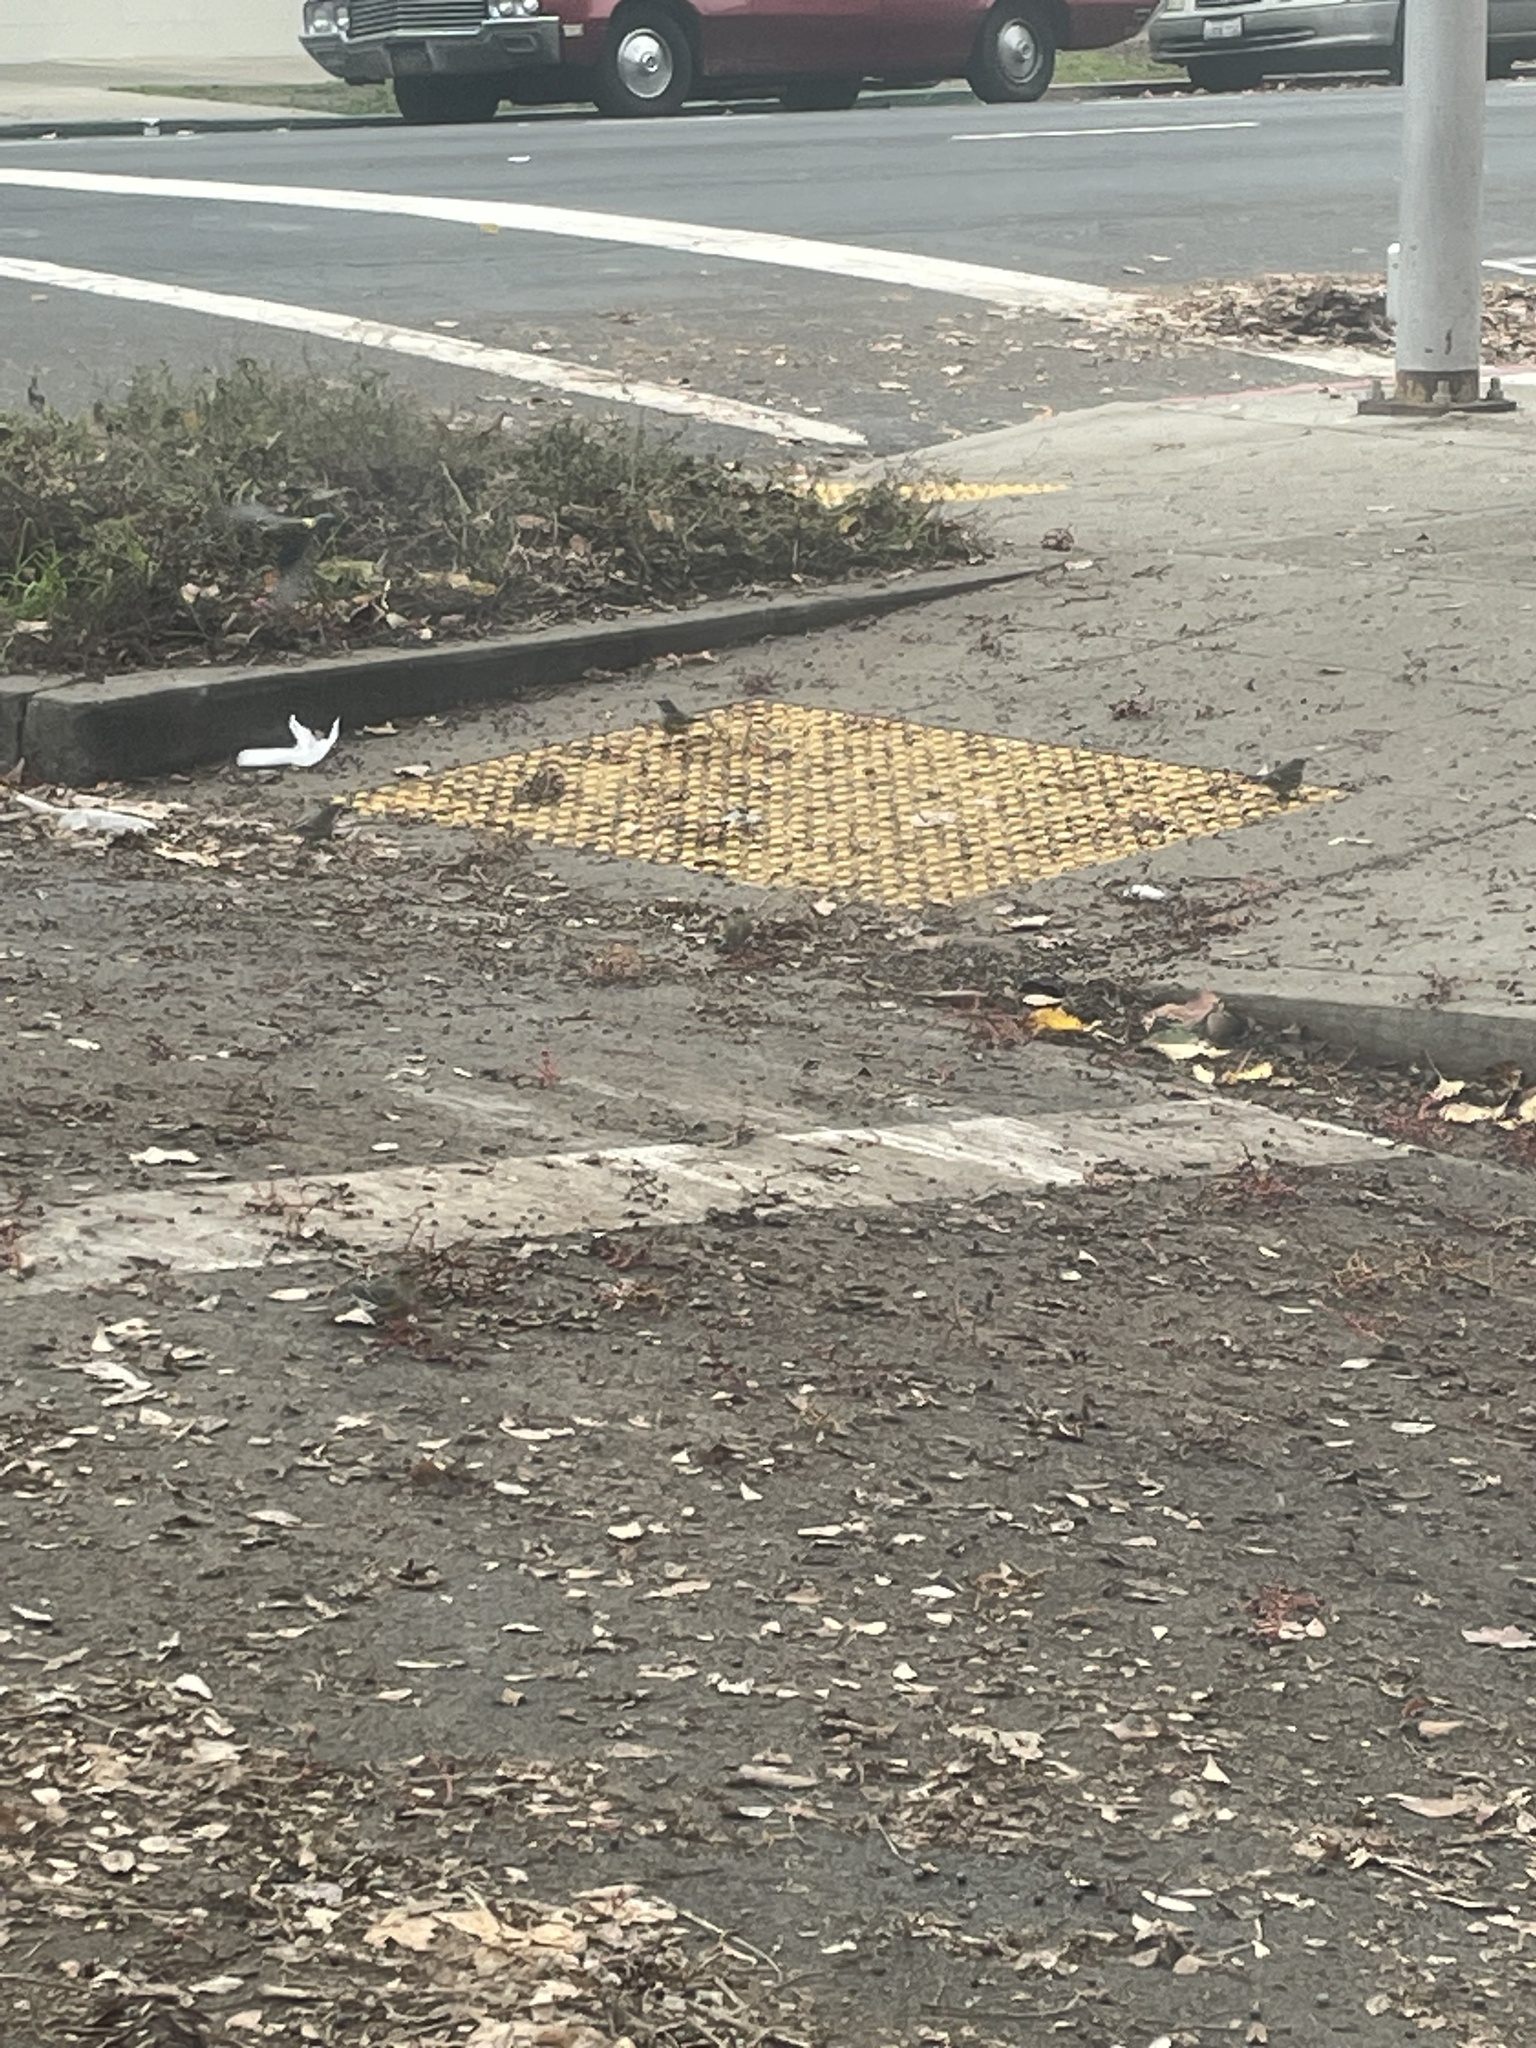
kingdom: Animalia
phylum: Chordata
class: Aves
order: Passeriformes
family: Parulidae
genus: Setophaga
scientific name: Setophaga coronata
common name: Myrtle warbler
